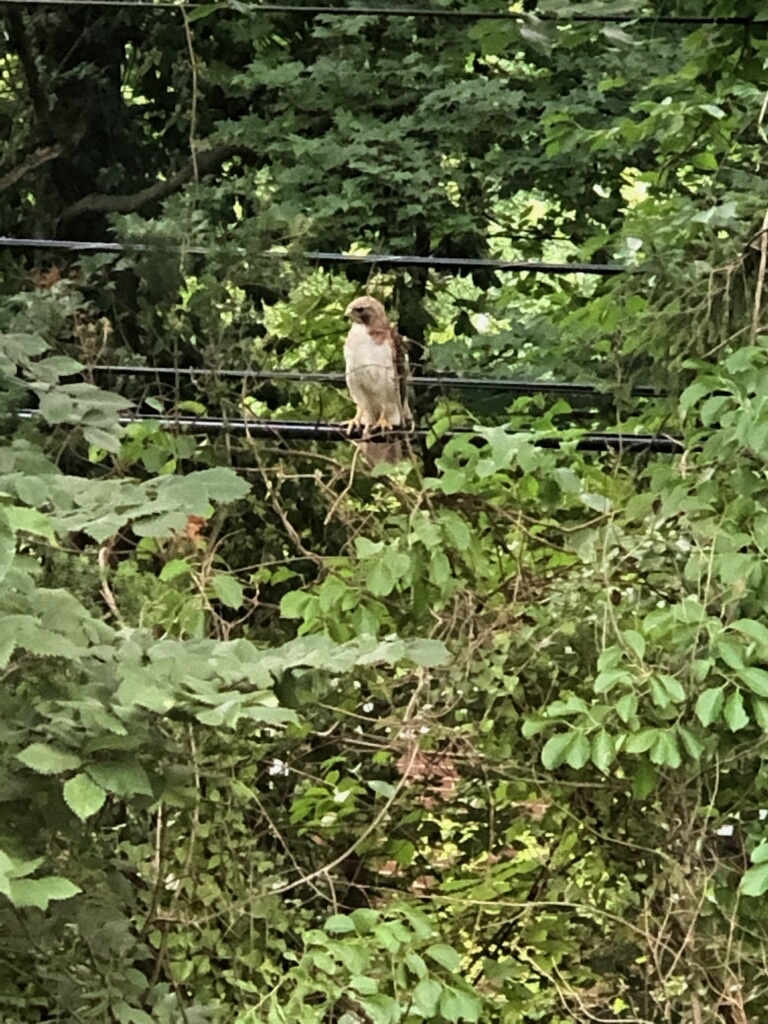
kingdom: Animalia
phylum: Chordata
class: Aves
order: Accipitriformes
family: Accipitridae
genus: Buteo
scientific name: Buteo jamaicensis
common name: Red-tailed hawk
